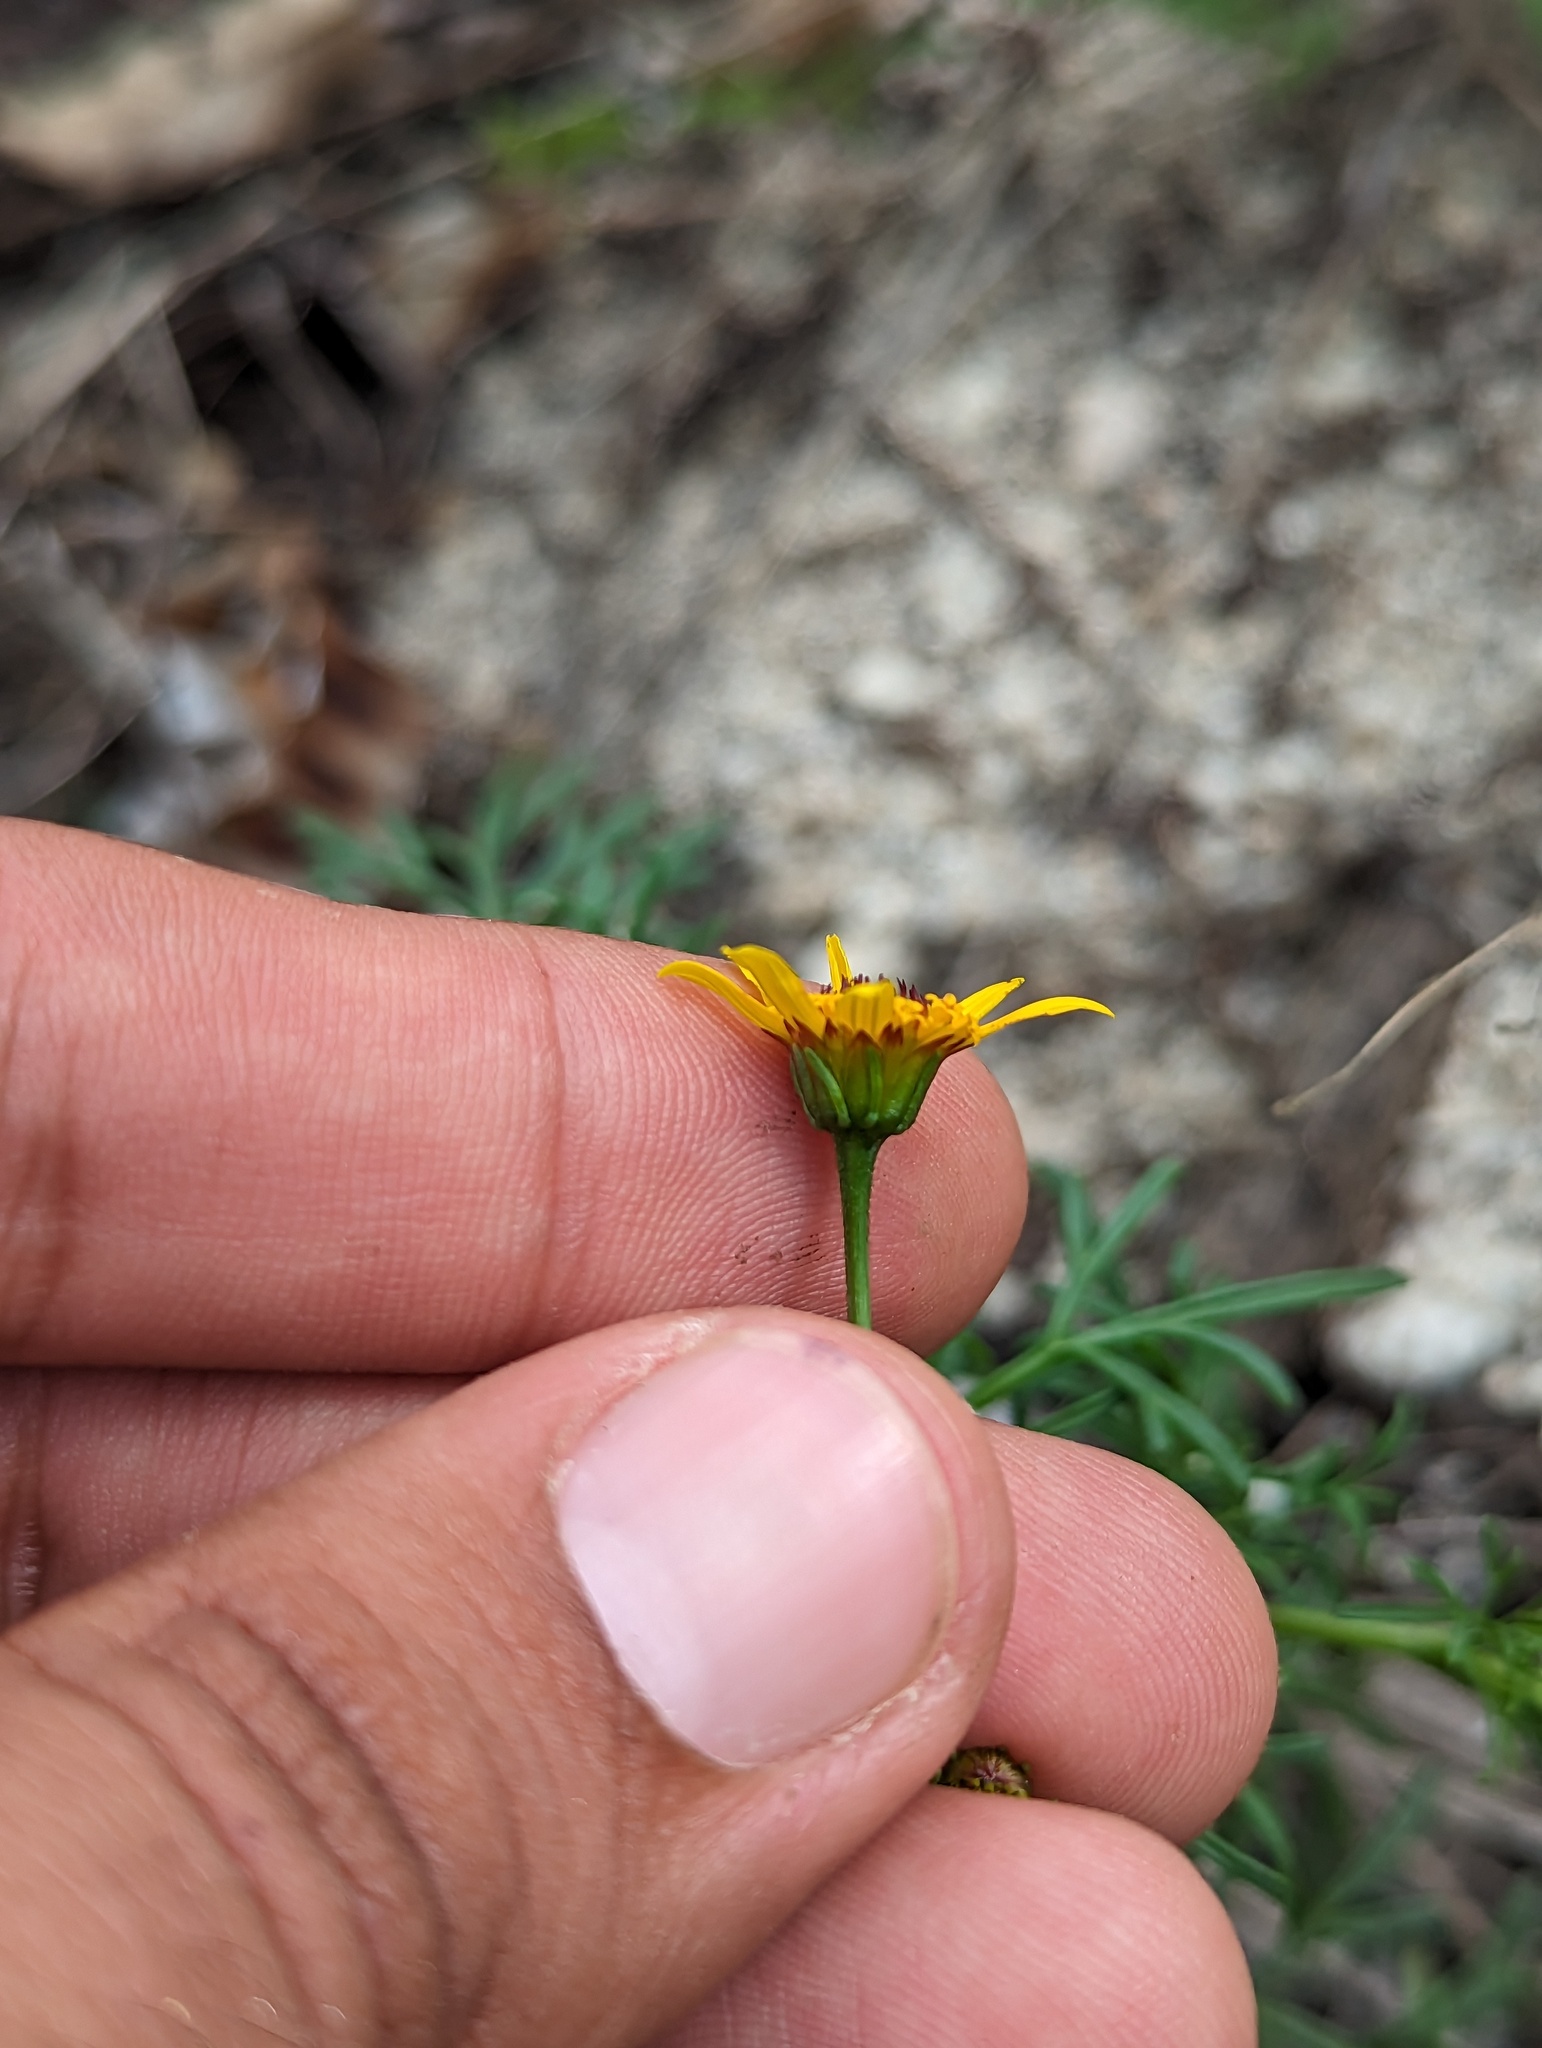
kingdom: Plantae
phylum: Tracheophyta
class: Magnoliopsida
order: Asterales
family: Asteraceae
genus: Bidens
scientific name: Bidens xanti
